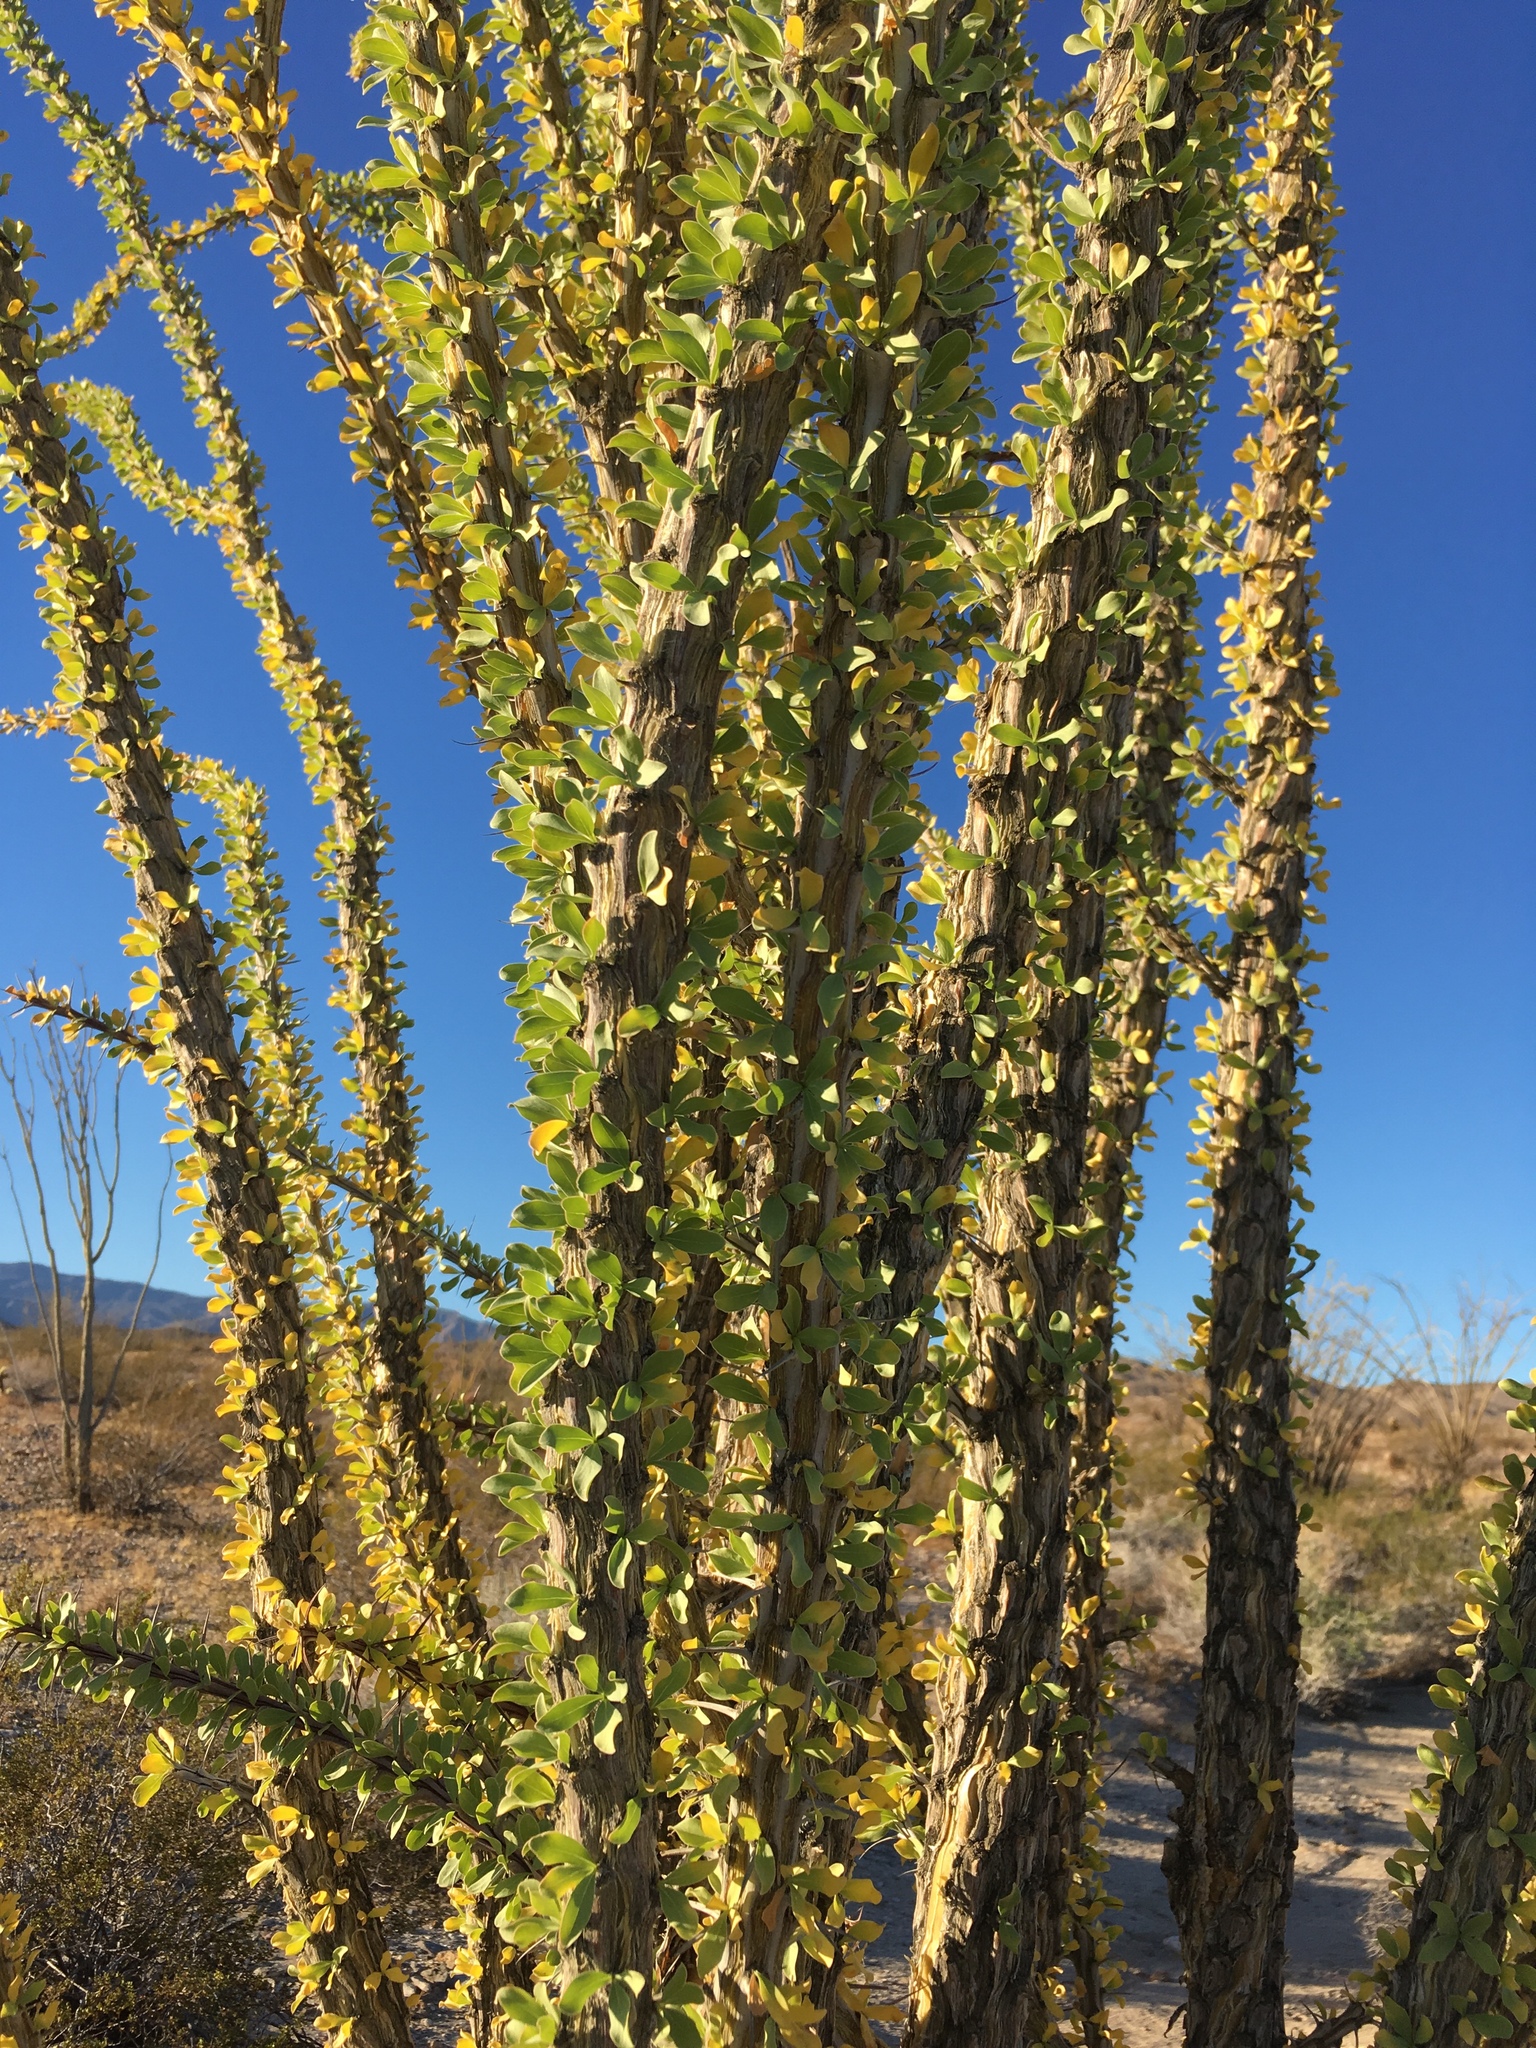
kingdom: Plantae
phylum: Tracheophyta
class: Magnoliopsida
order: Ericales
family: Fouquieriaceae
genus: Fouquieria
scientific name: Fouquieria splendens
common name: Vine-cactus
